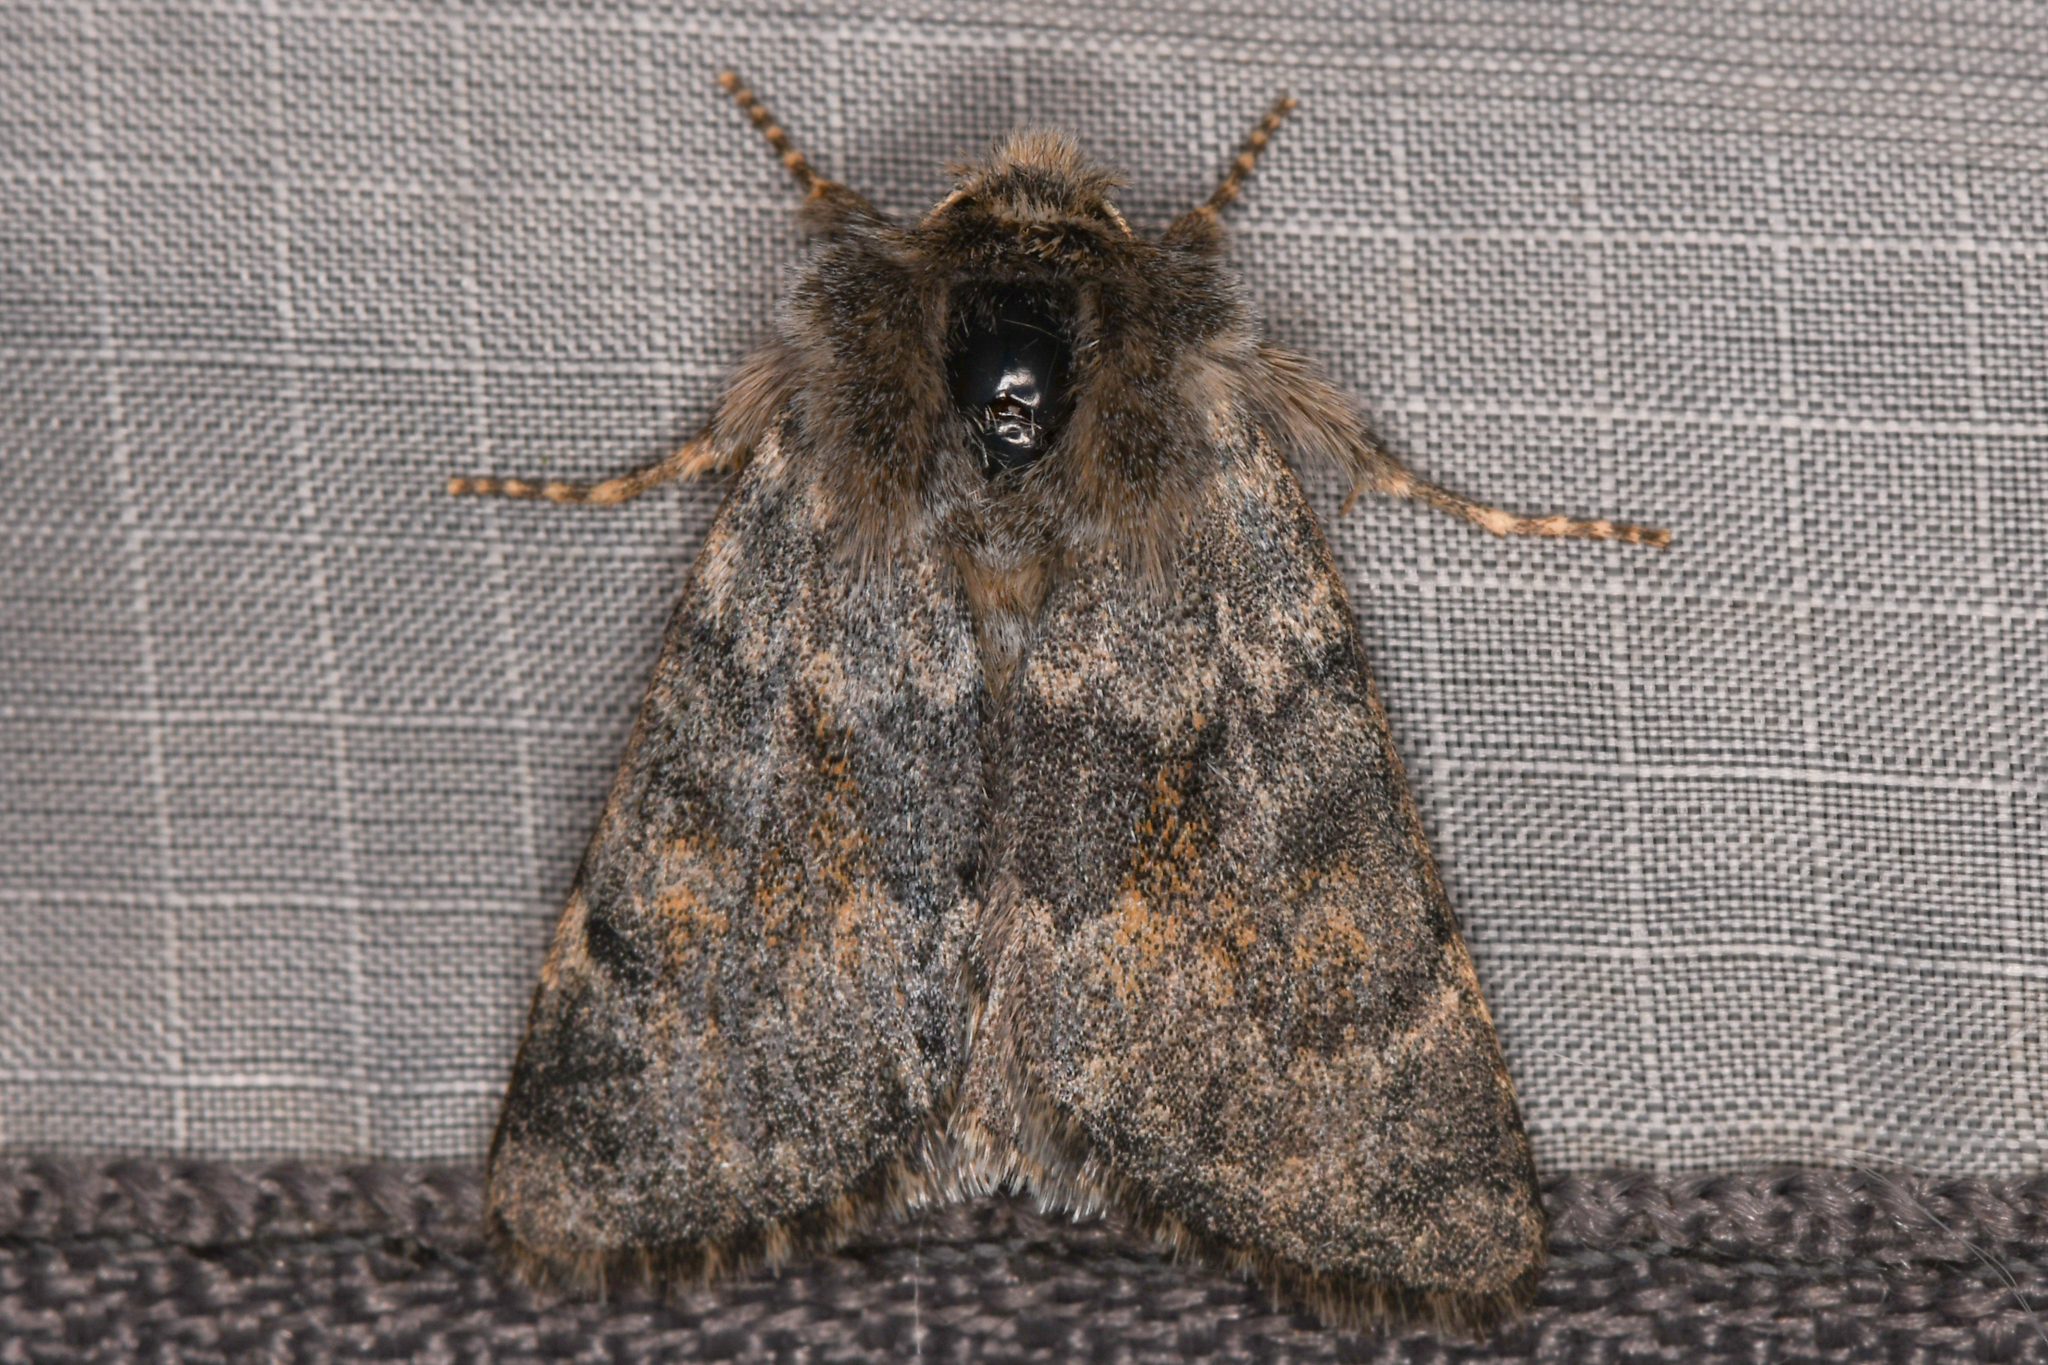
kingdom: Animalia
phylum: Arthropoda
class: Insecta
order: Lepidoptera
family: Noctuidae
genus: Lasionycta
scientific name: Lasionycta luteola
